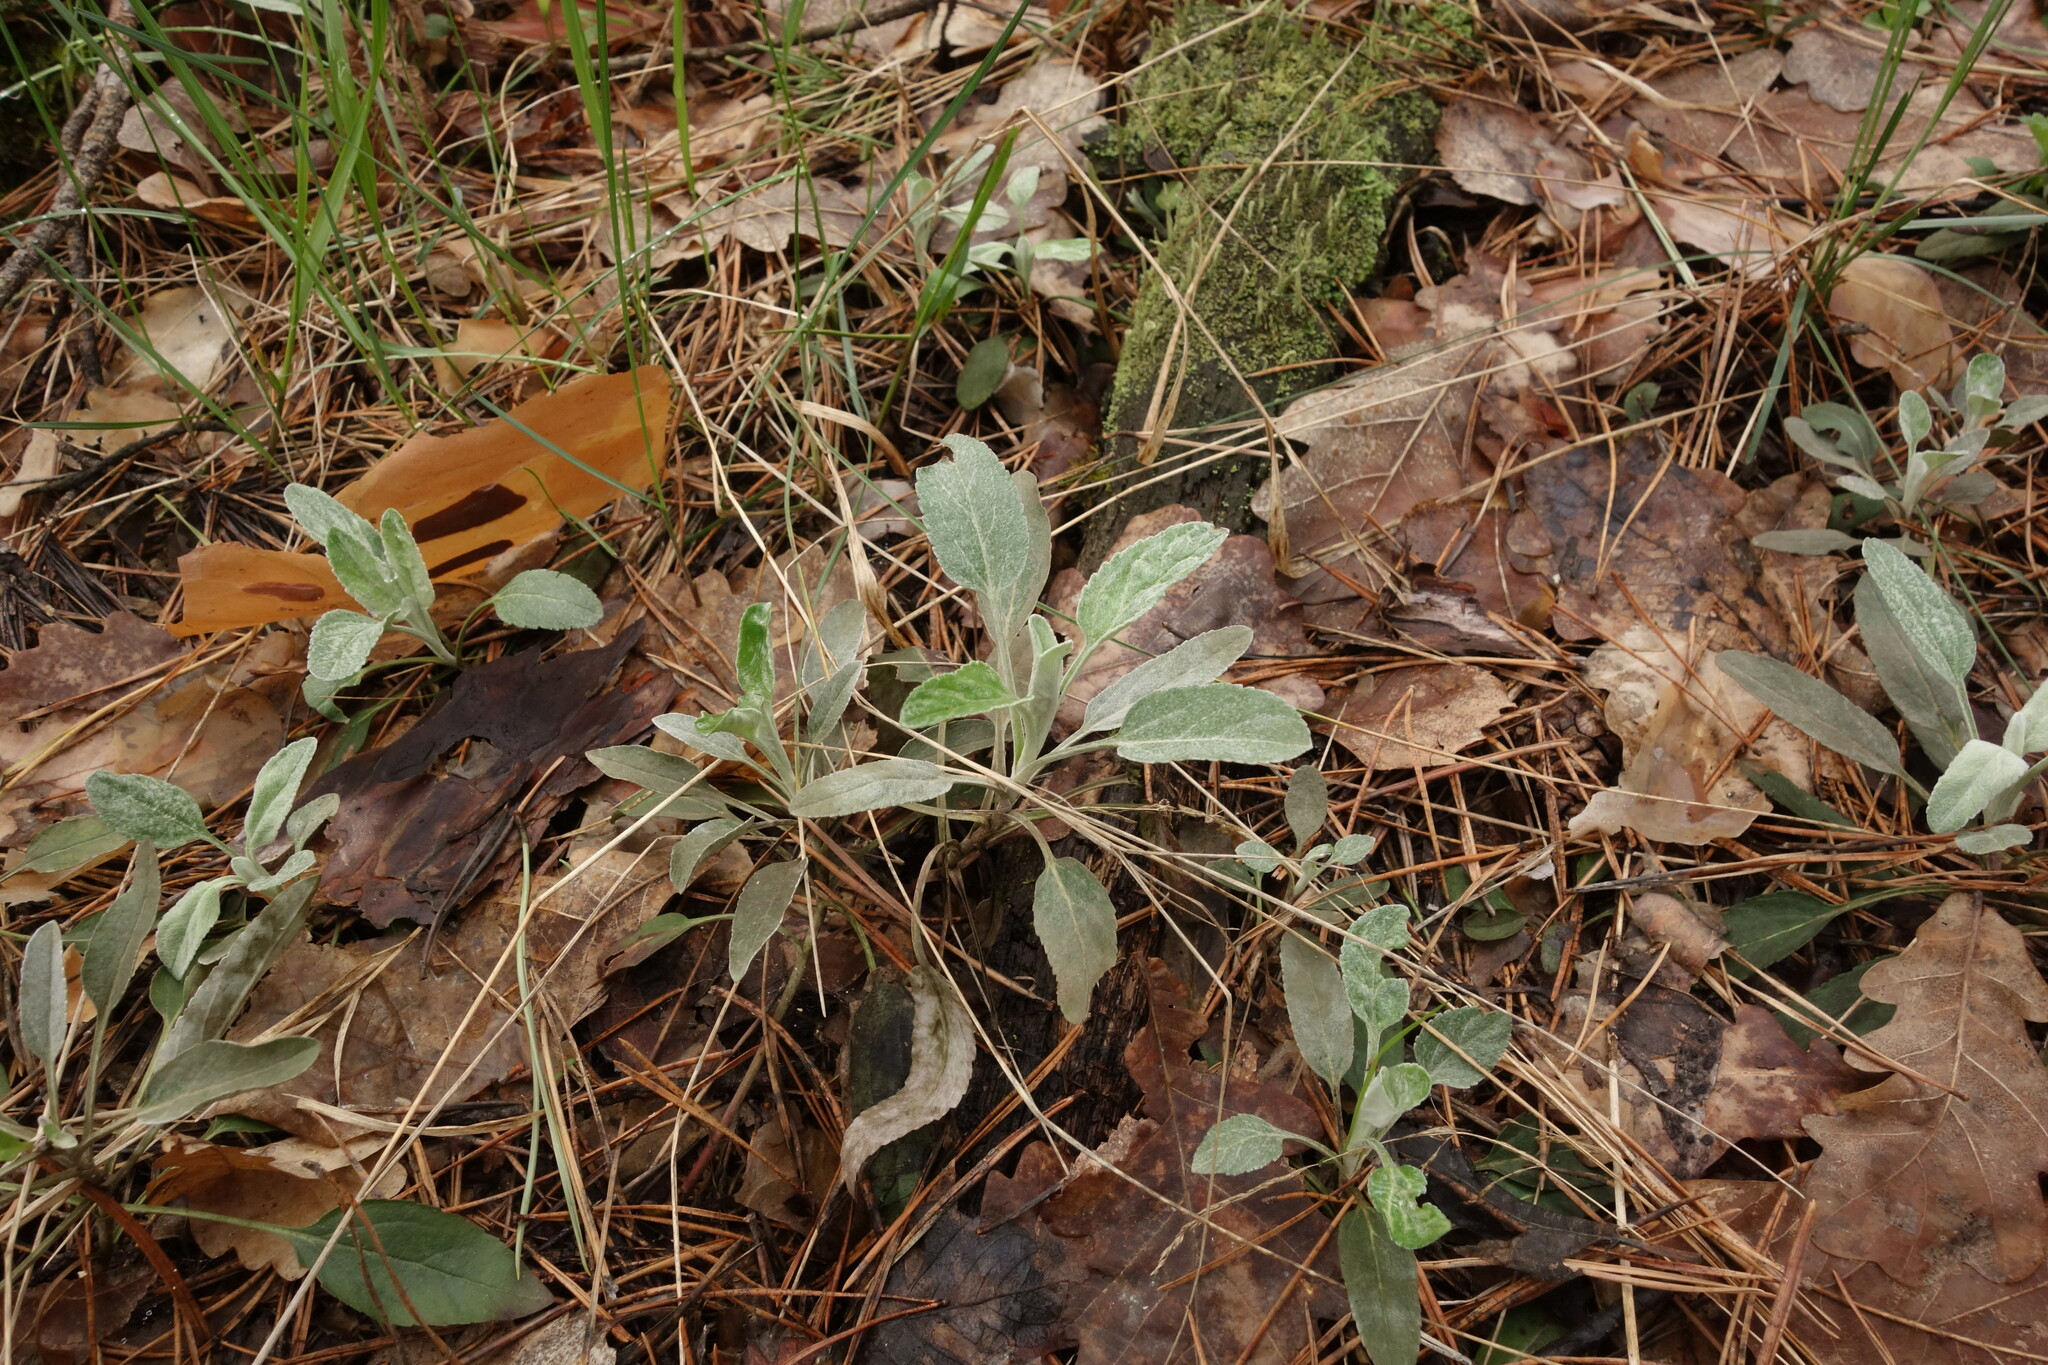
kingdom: Plantae
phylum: Tracheophyta
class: Magnoliopsida
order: Lamiales
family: Plantaginaceae
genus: Veronica
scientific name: Veronica incana
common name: Silver speedwell
